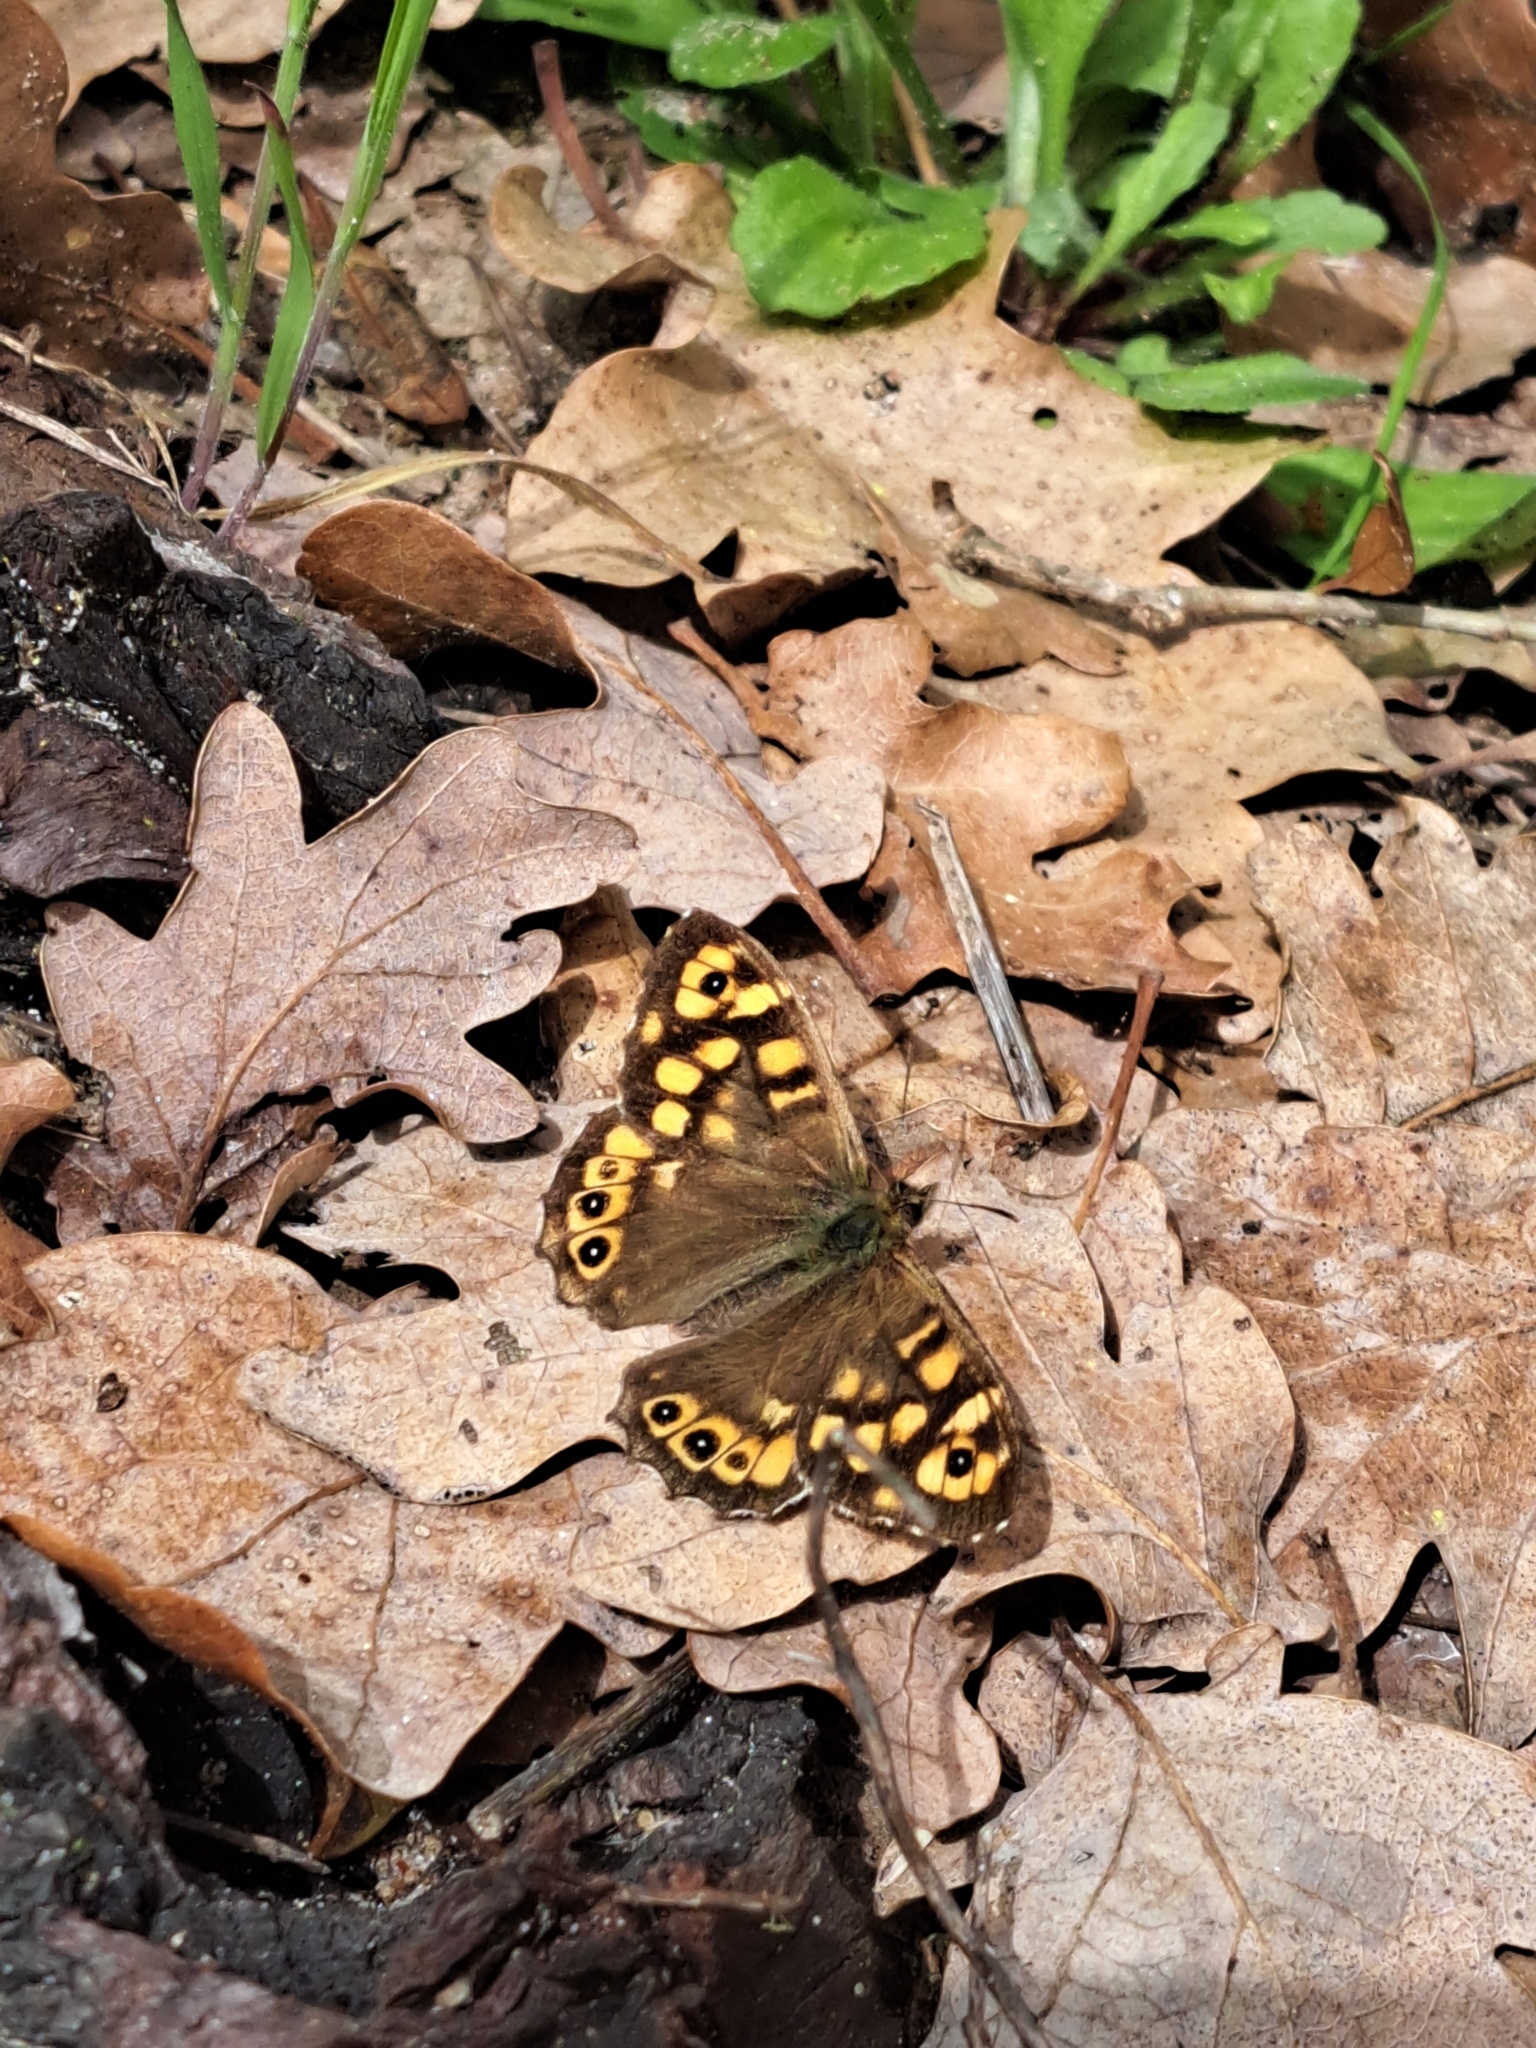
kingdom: Animalia
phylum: Arthropoda
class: Insecta
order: Lepidoptera
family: Nymphalidae
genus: Pararge
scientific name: Pararge aegeria
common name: Speckled wood
